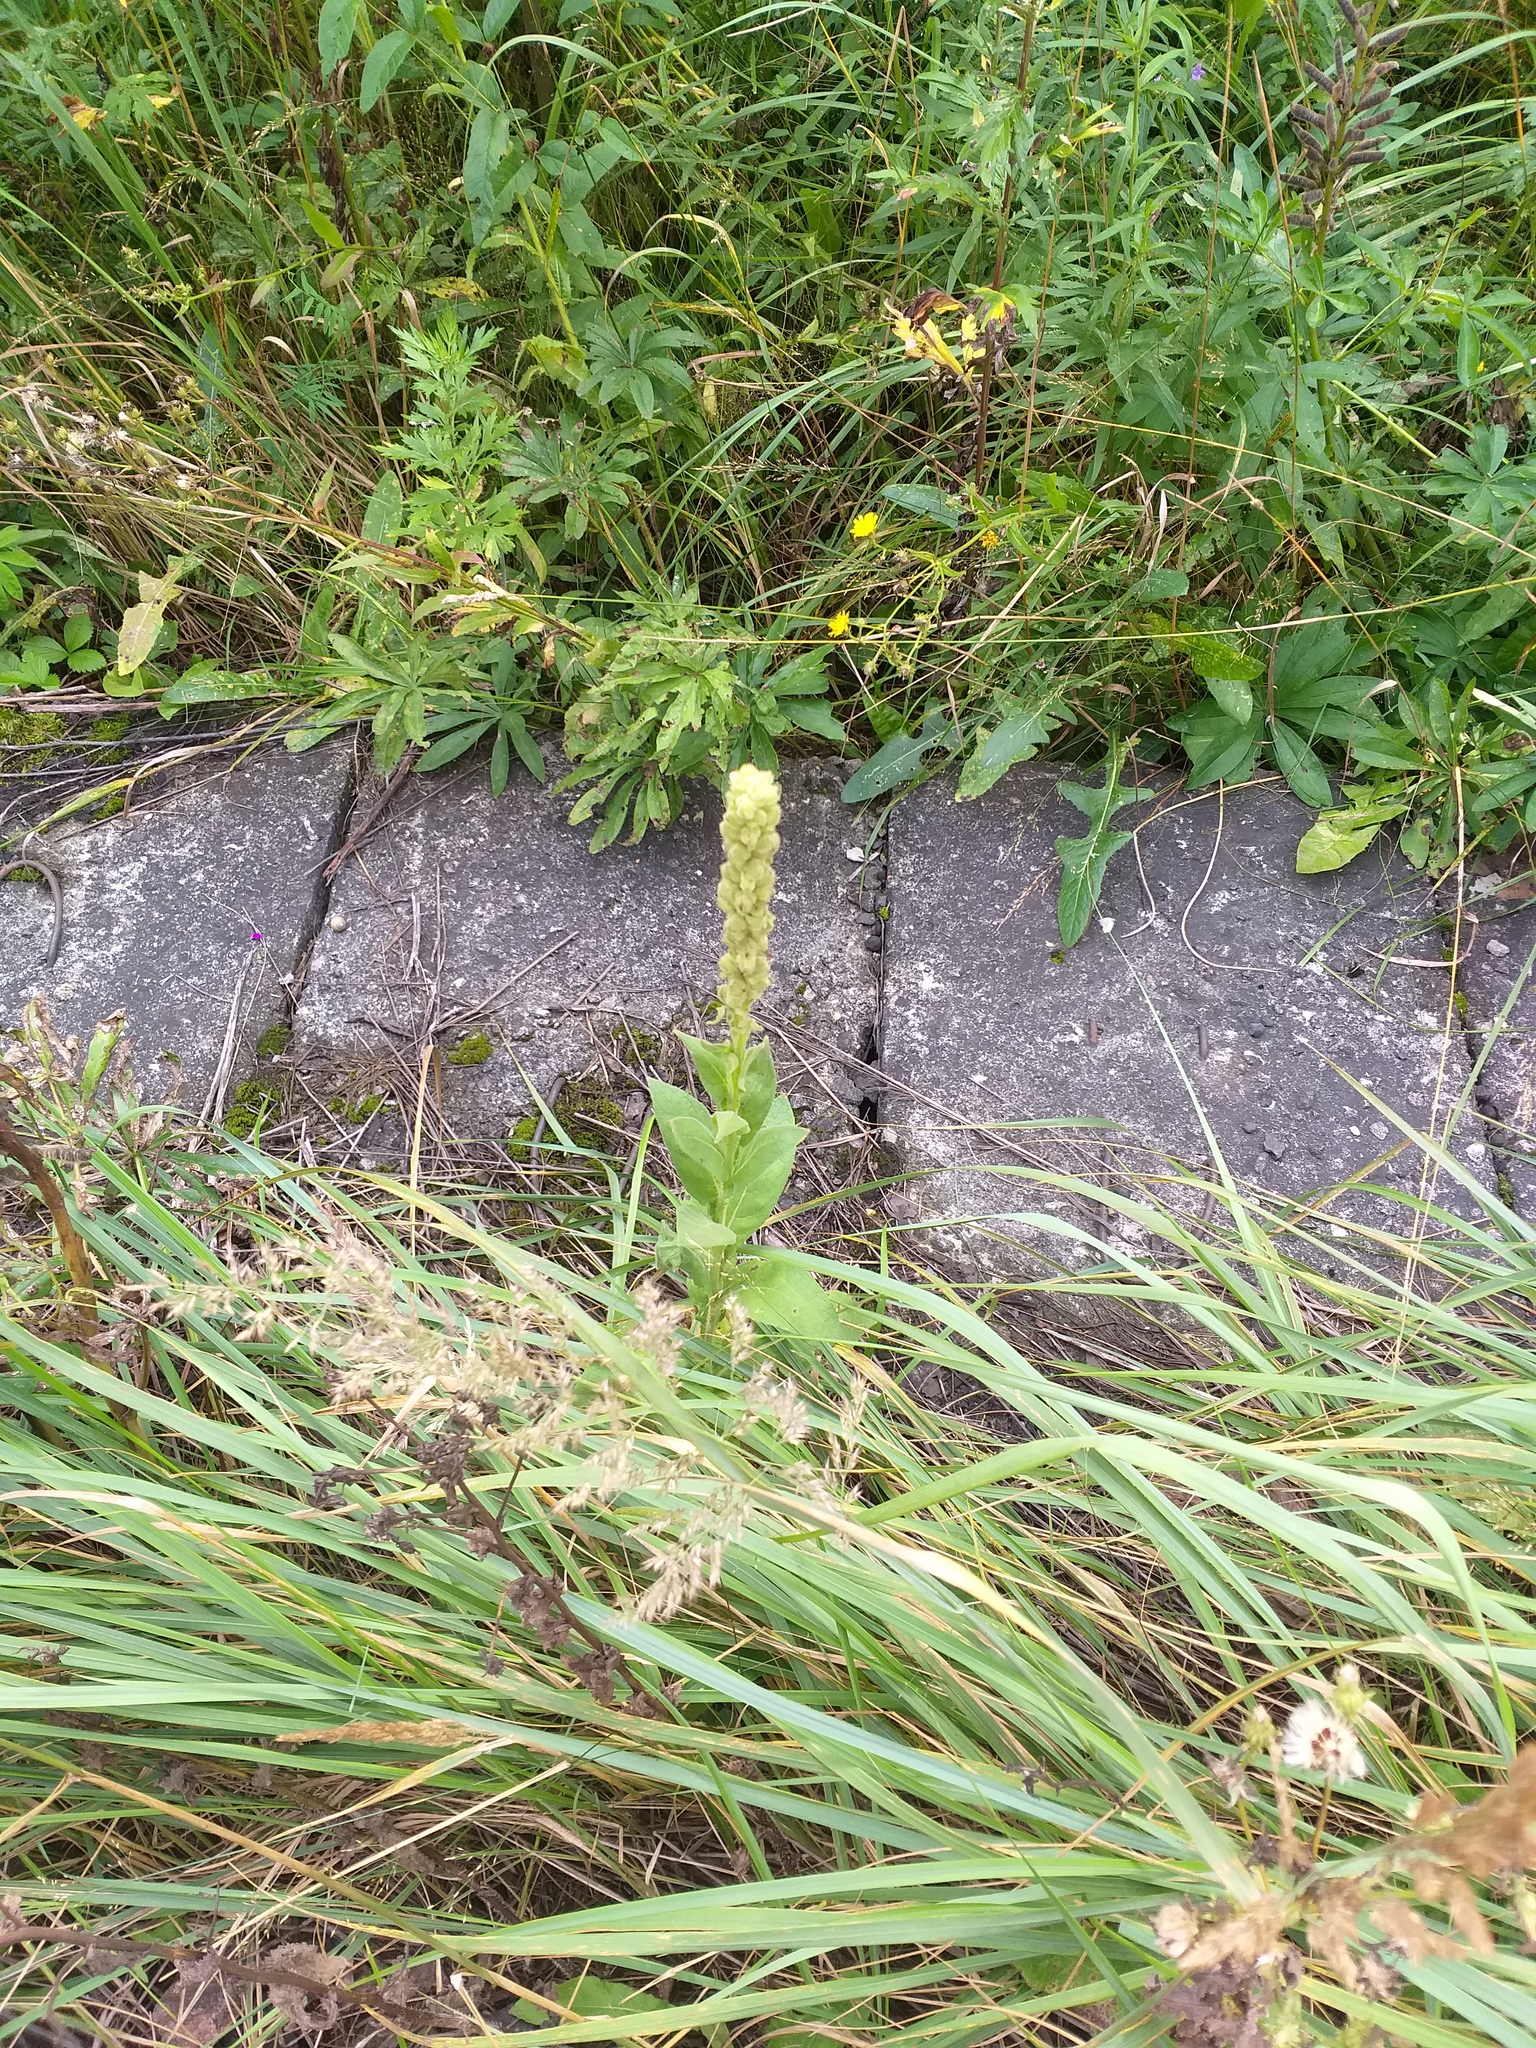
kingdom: Plantae
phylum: Tracheophyta
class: Magnoliopsida
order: Lamiales
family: Scrophulariaceae
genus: Verbascum
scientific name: Verbascum thapsus
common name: Common mullein
